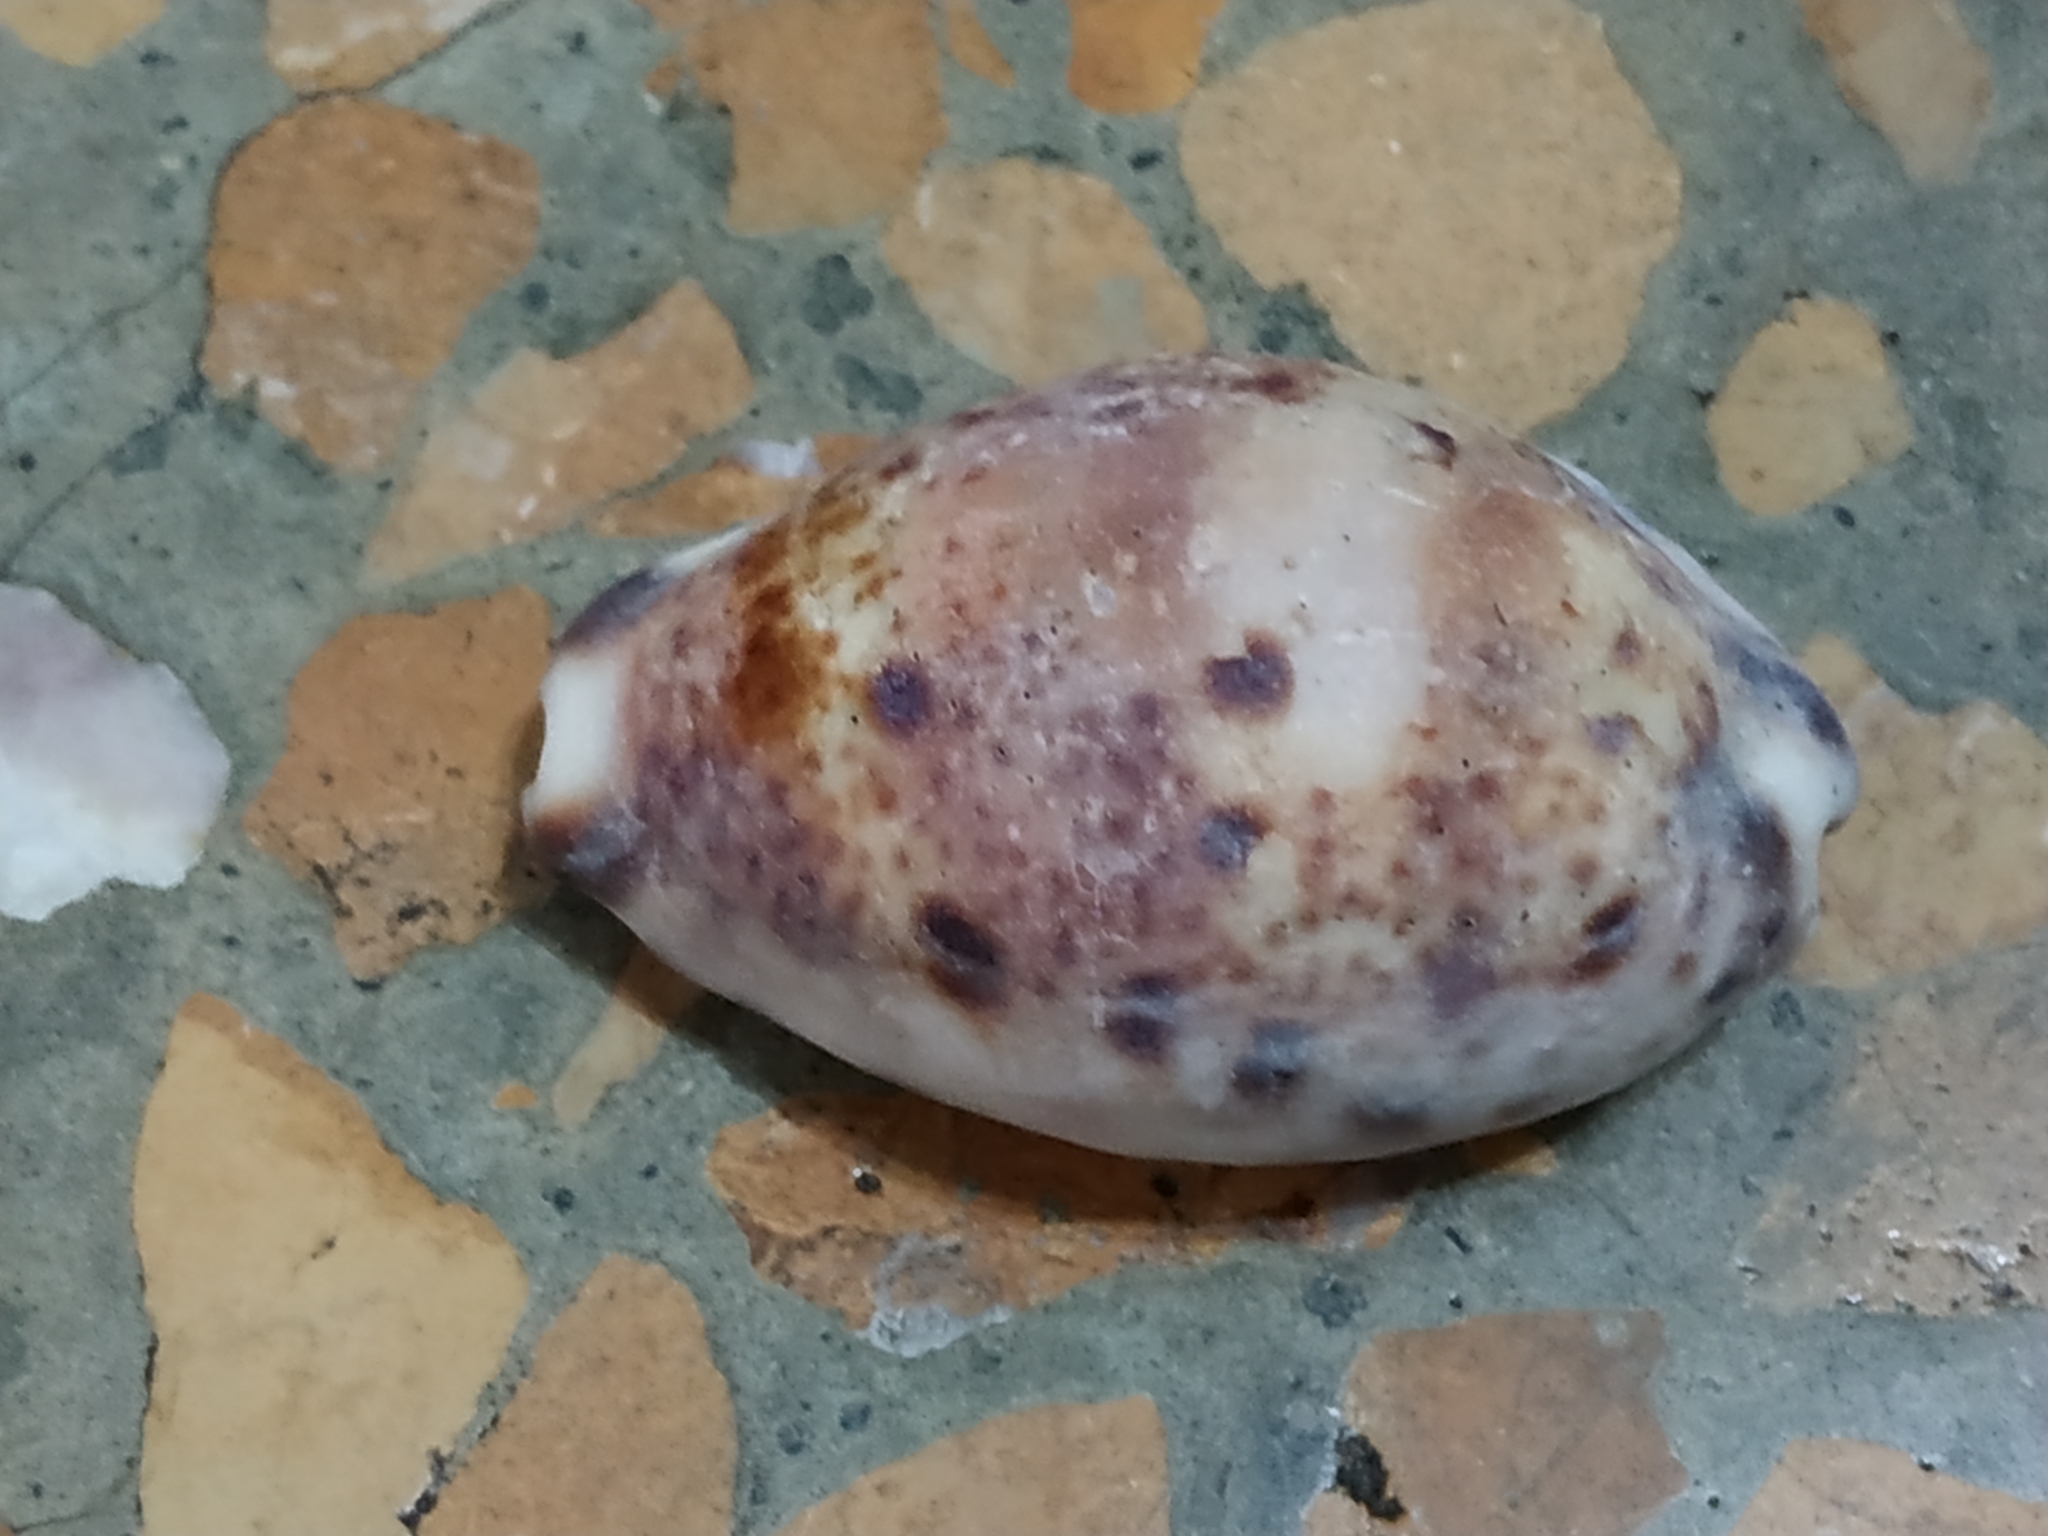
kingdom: Animalia
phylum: Mollusca
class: Gastropoda
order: Littorinimorpha
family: Cypraeidae
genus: Lyncina
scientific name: Lyncina lynx
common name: Bobcat cowrie
